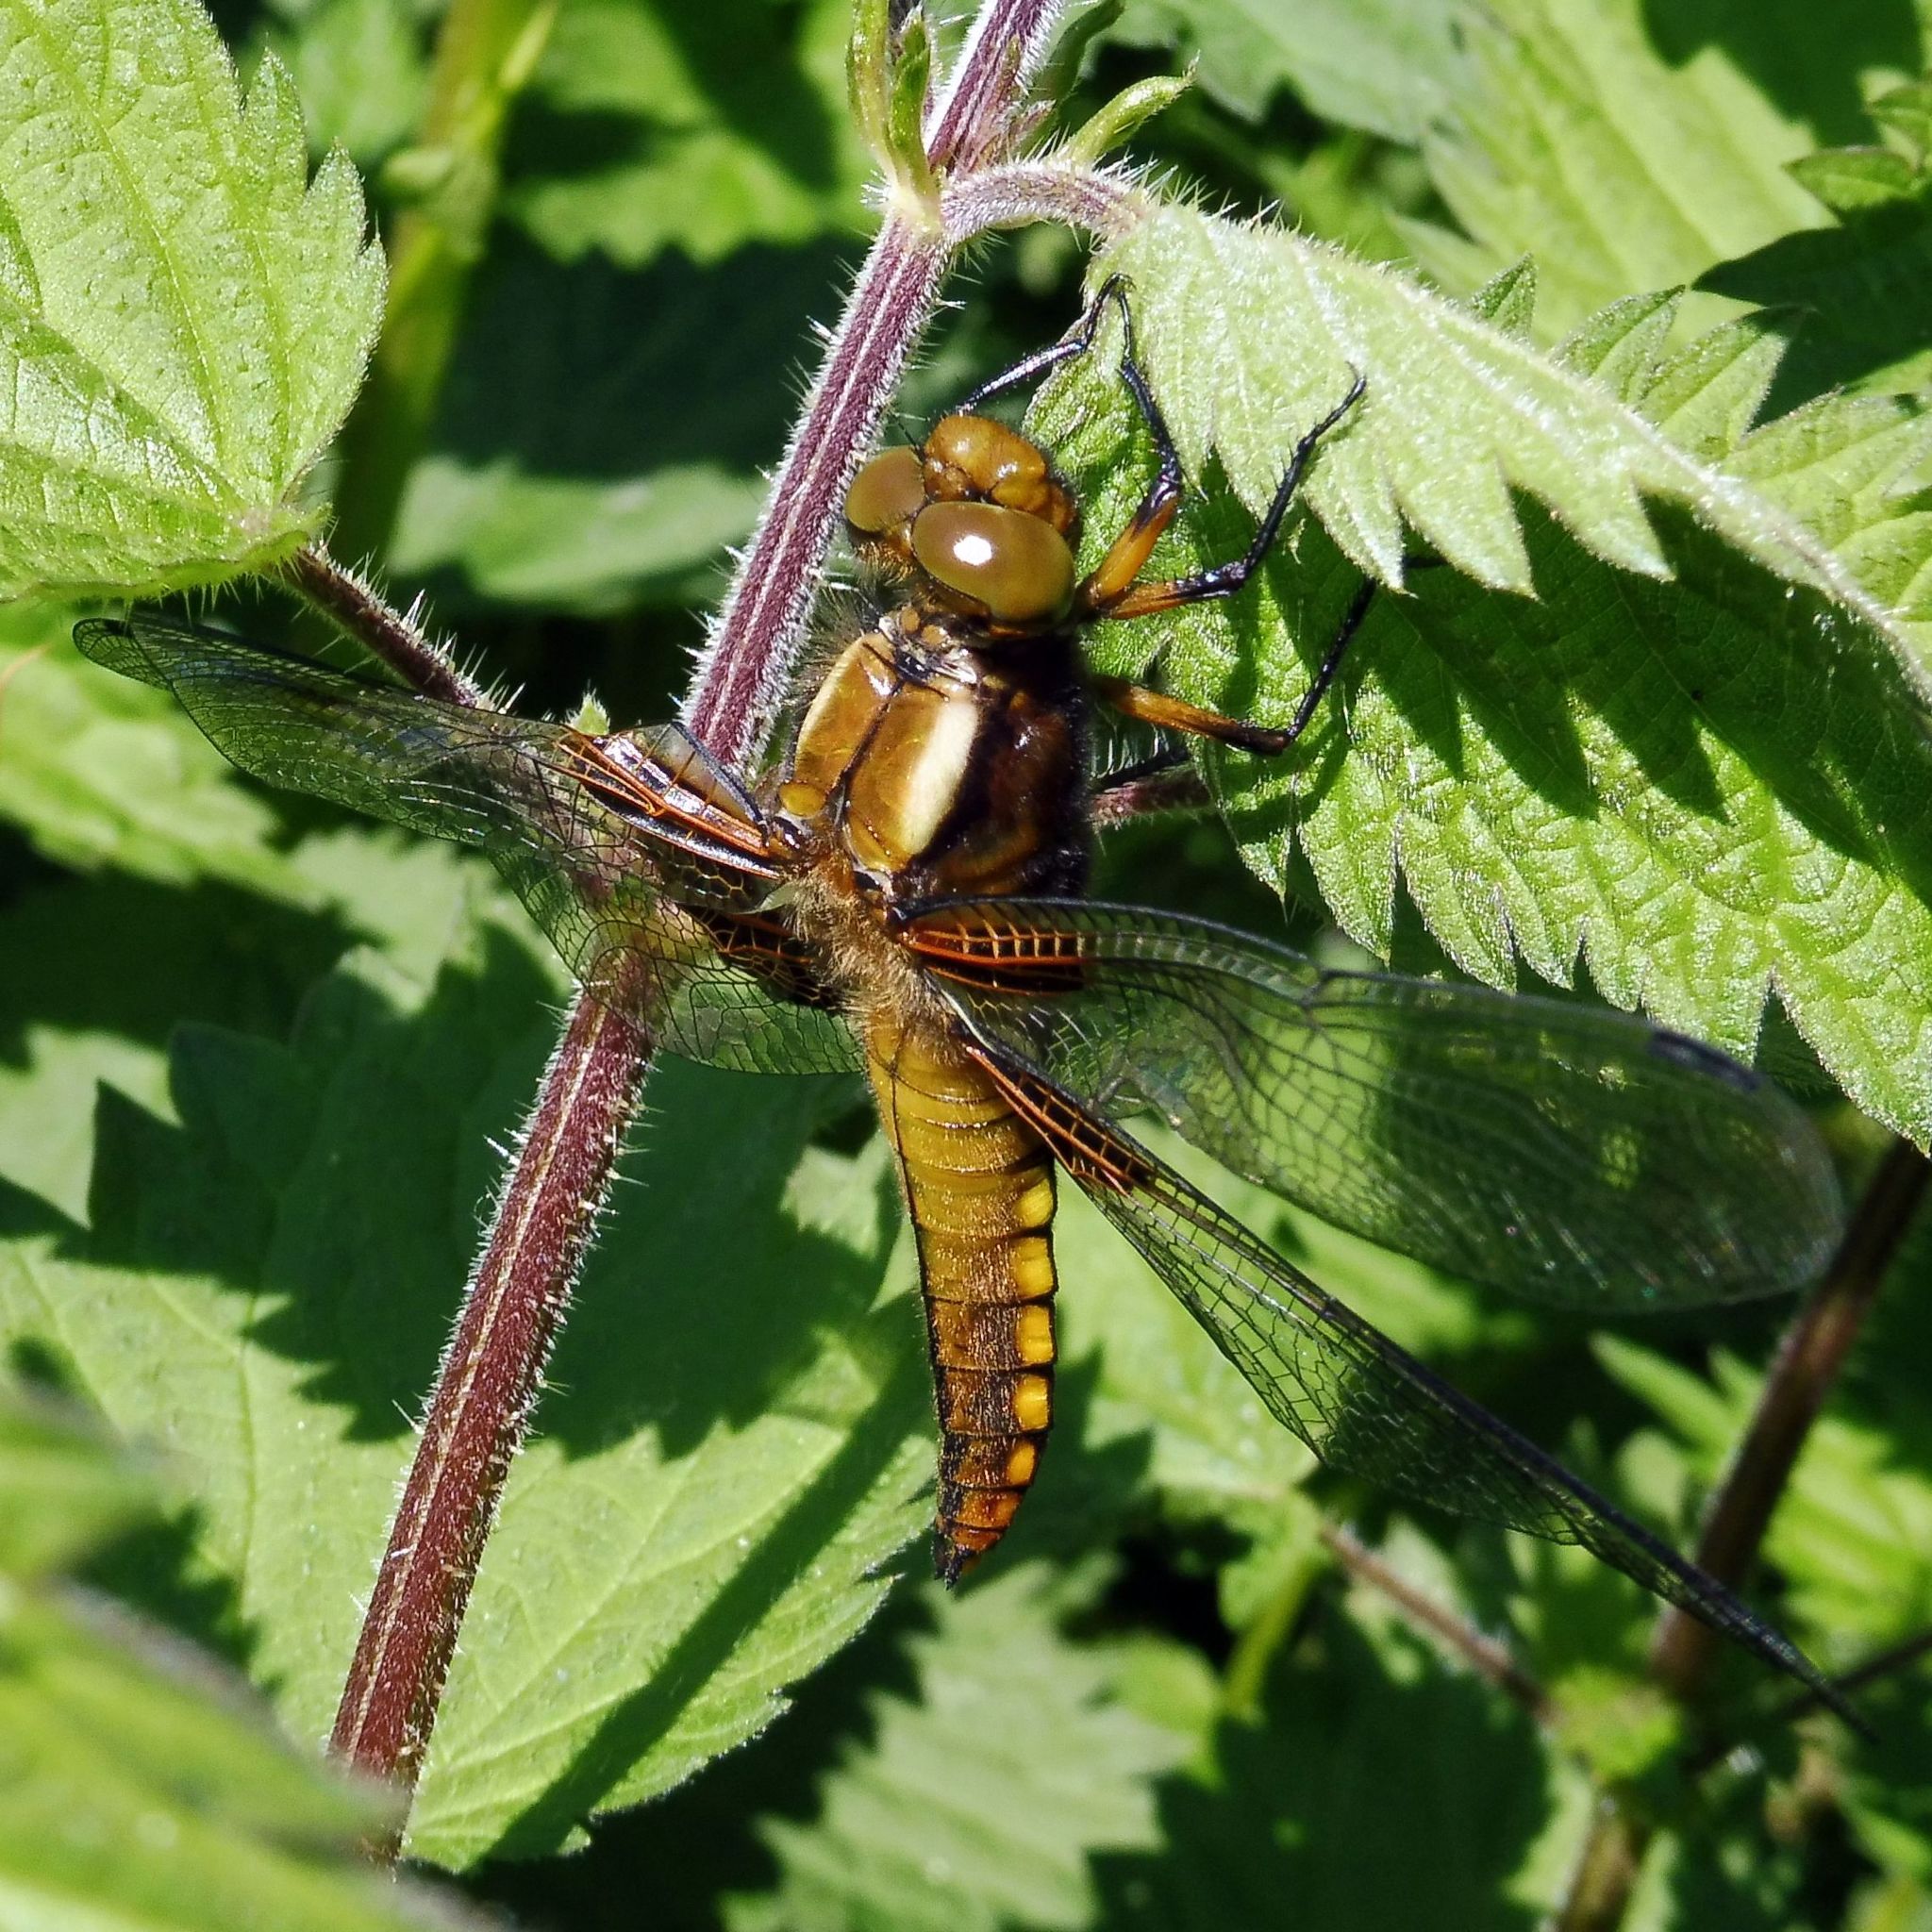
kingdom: Animalia
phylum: Arthropoda
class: Insecta
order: Odonata
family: Libellulidae
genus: Libellula
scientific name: Libellula depressa
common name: Broad-bodied chaser
